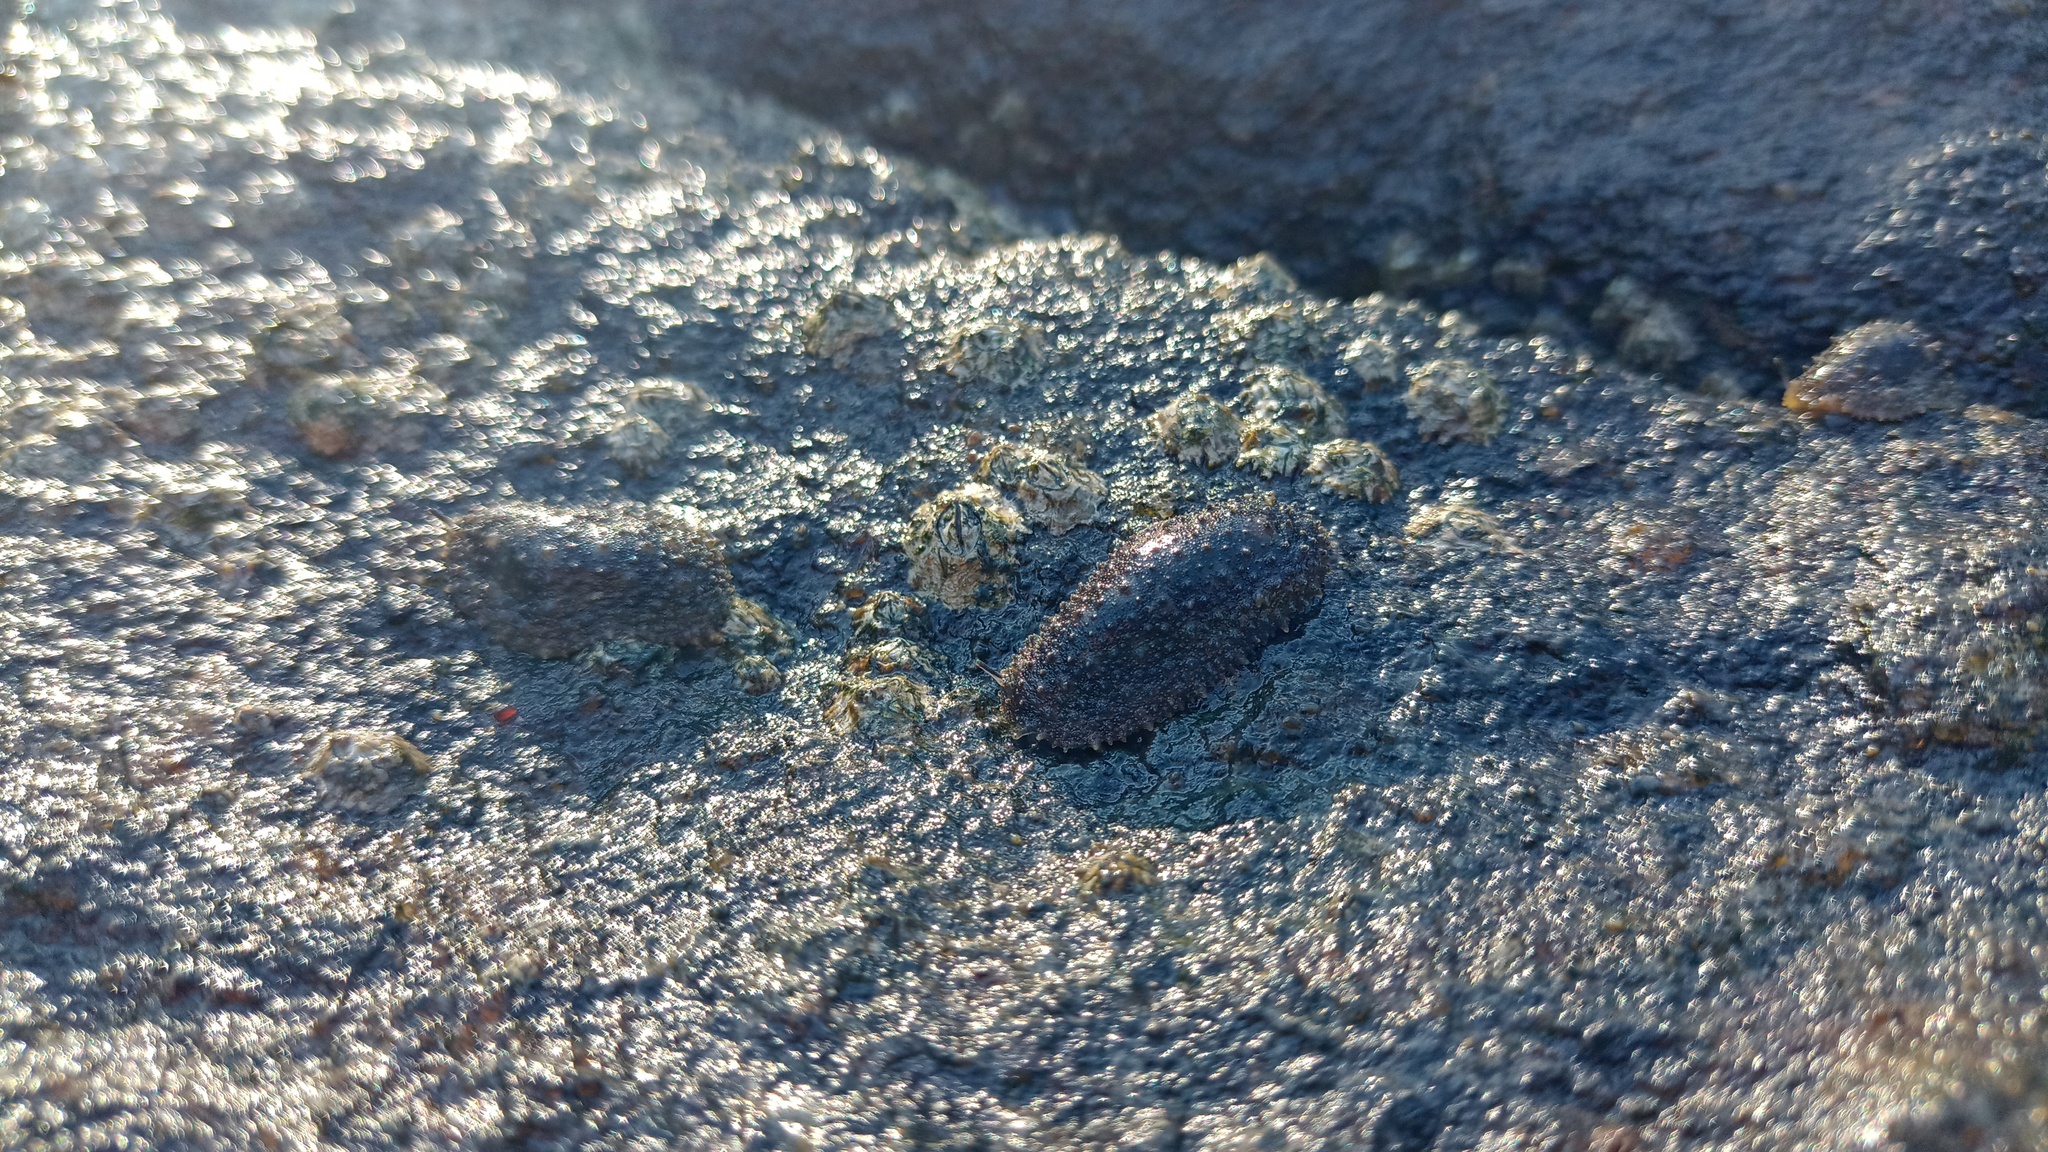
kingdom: Animalia
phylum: Mollusca
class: Gastropoda
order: Systellommatophora
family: Onchidiidae
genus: Onchidella
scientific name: Onchidella incisa
